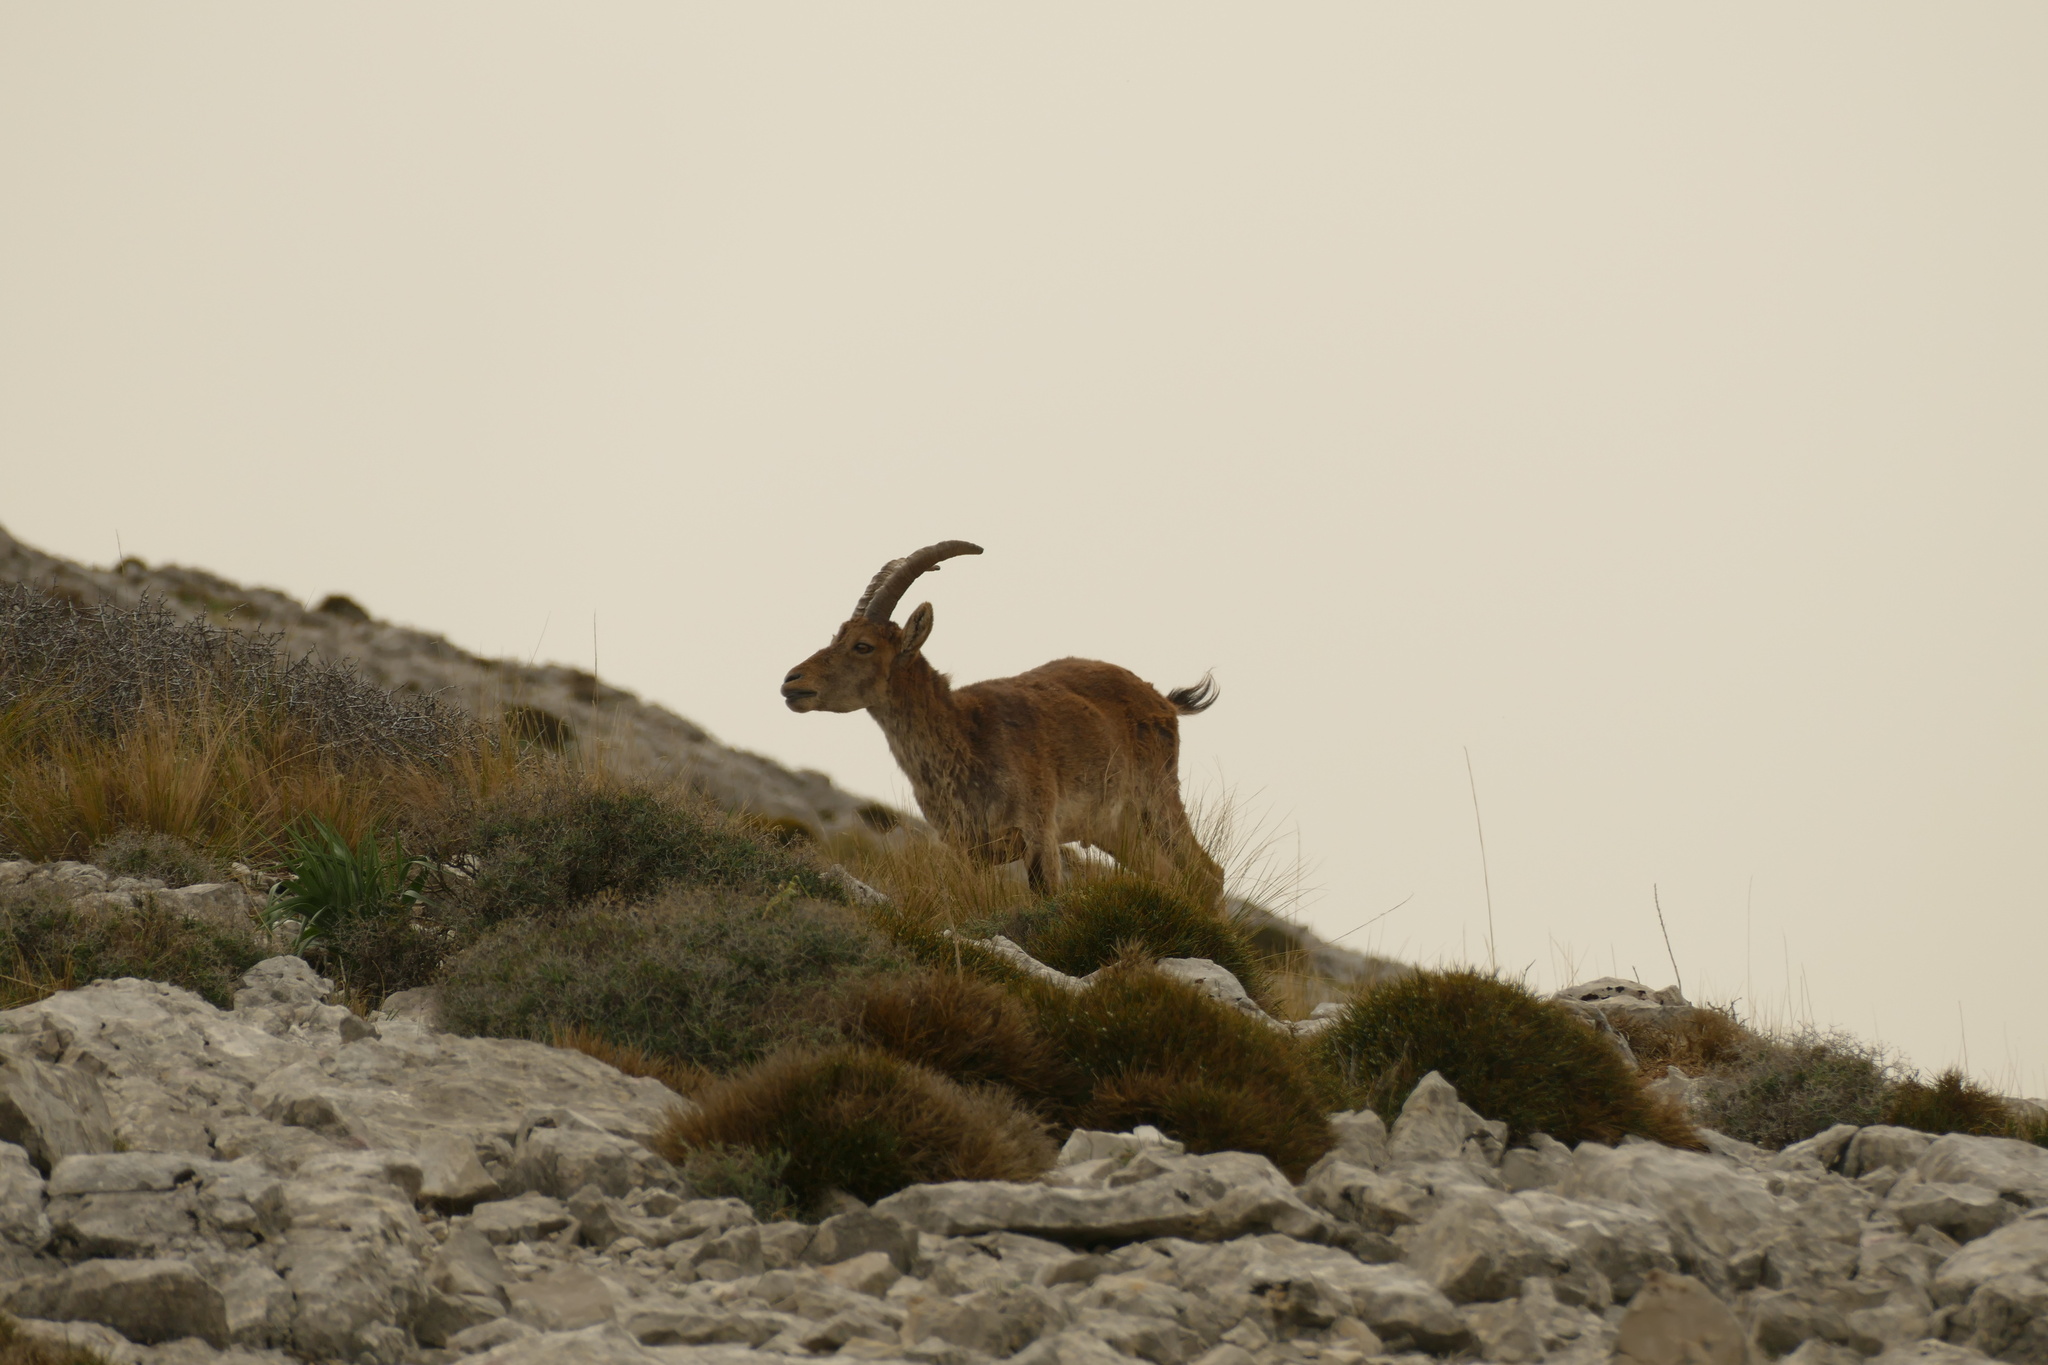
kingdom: Animalia
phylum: Chordata
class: Mammalia
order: Artiodactyla
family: Bovidae
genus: Capra
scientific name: Capra pyrenaica
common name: Spanish ibex
